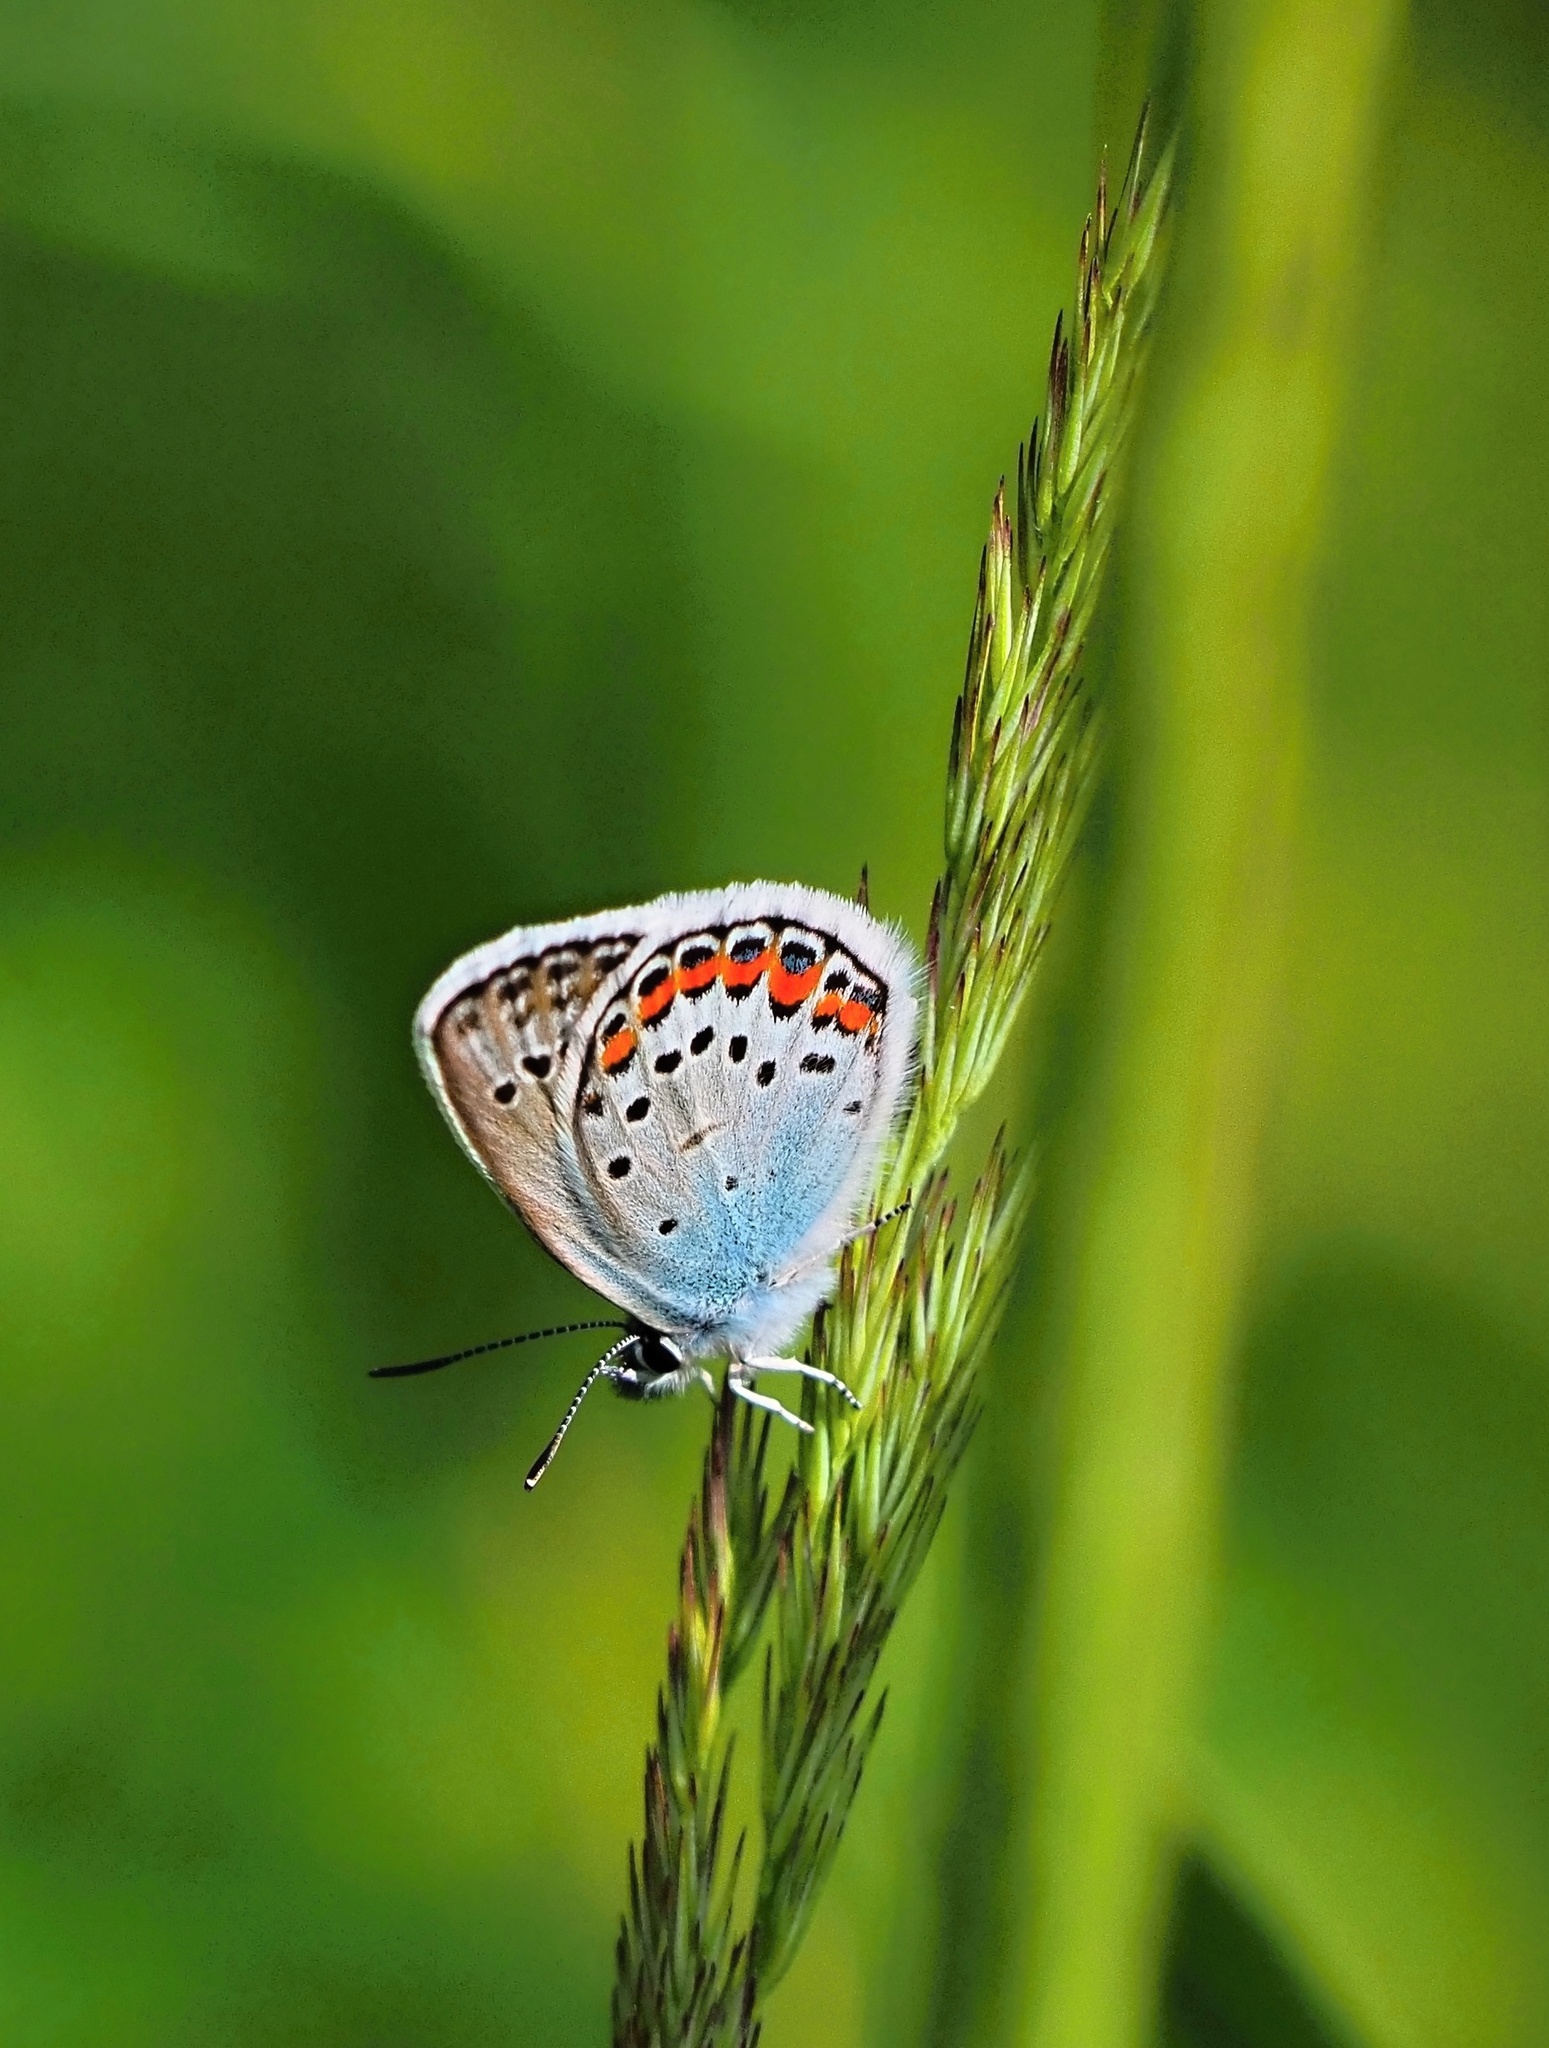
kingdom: Animalia
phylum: Arthropoda
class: Insecta
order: Lepidoptera
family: Lycaenidae
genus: Plebejus
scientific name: Plebejus argus
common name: Silver-studded blue
